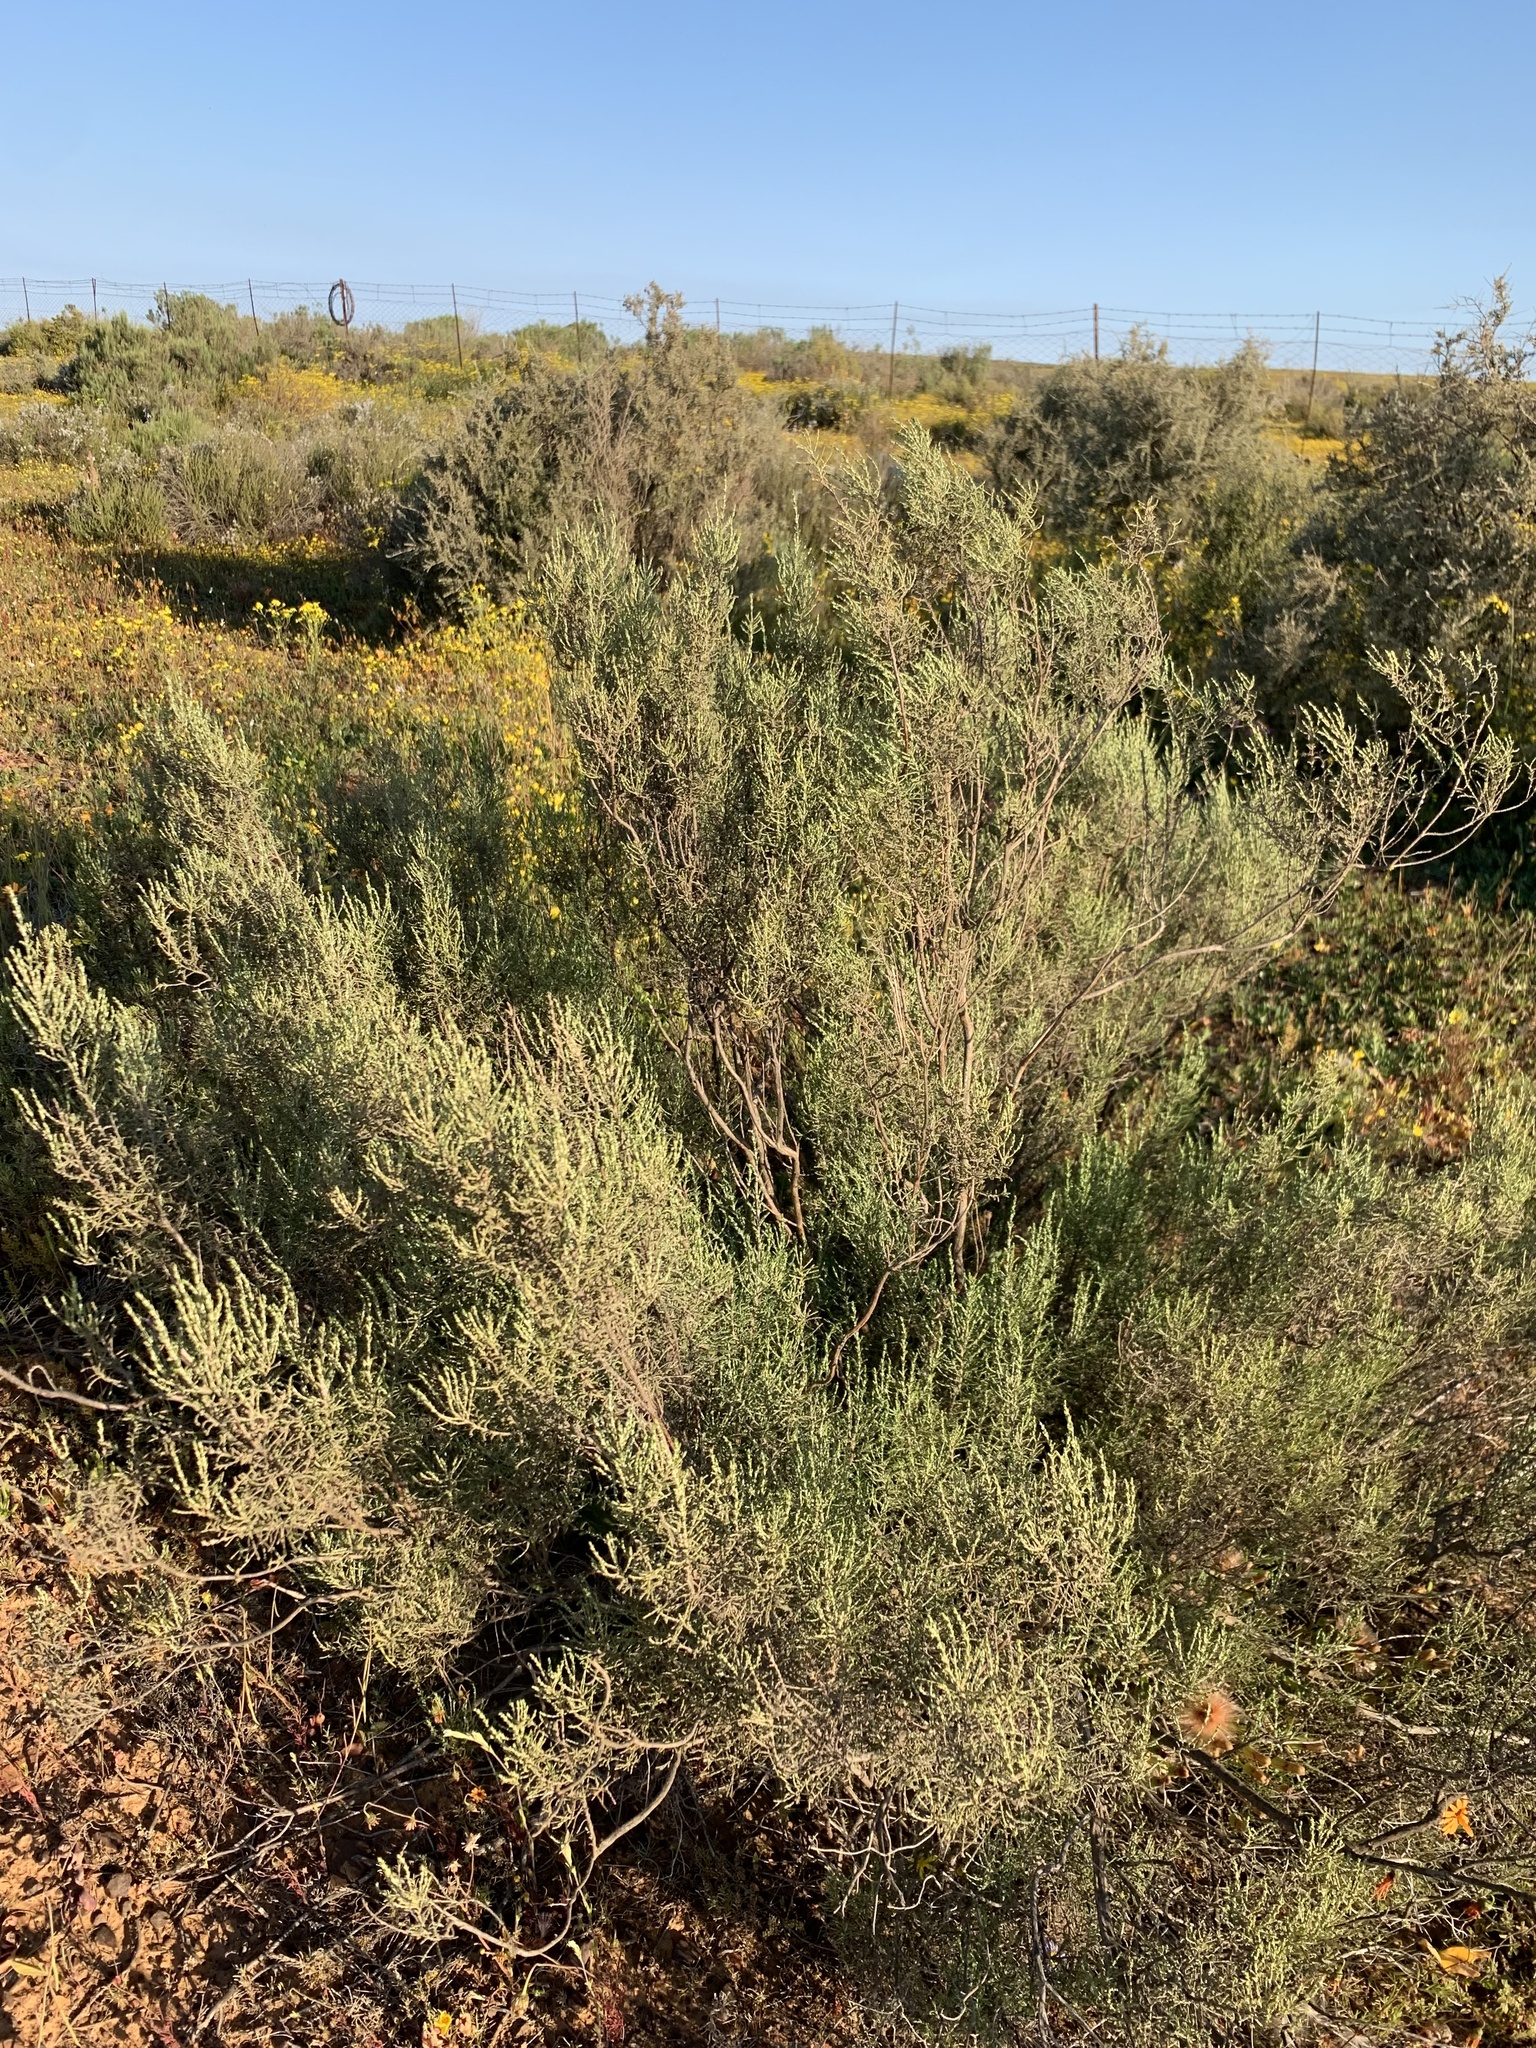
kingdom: Plantae
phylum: Tracheophyta
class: Magnoliopsida
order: Asterales
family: Asteraceae
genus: Dicerothamnus
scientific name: Dicerothamnus rhinocerotis
